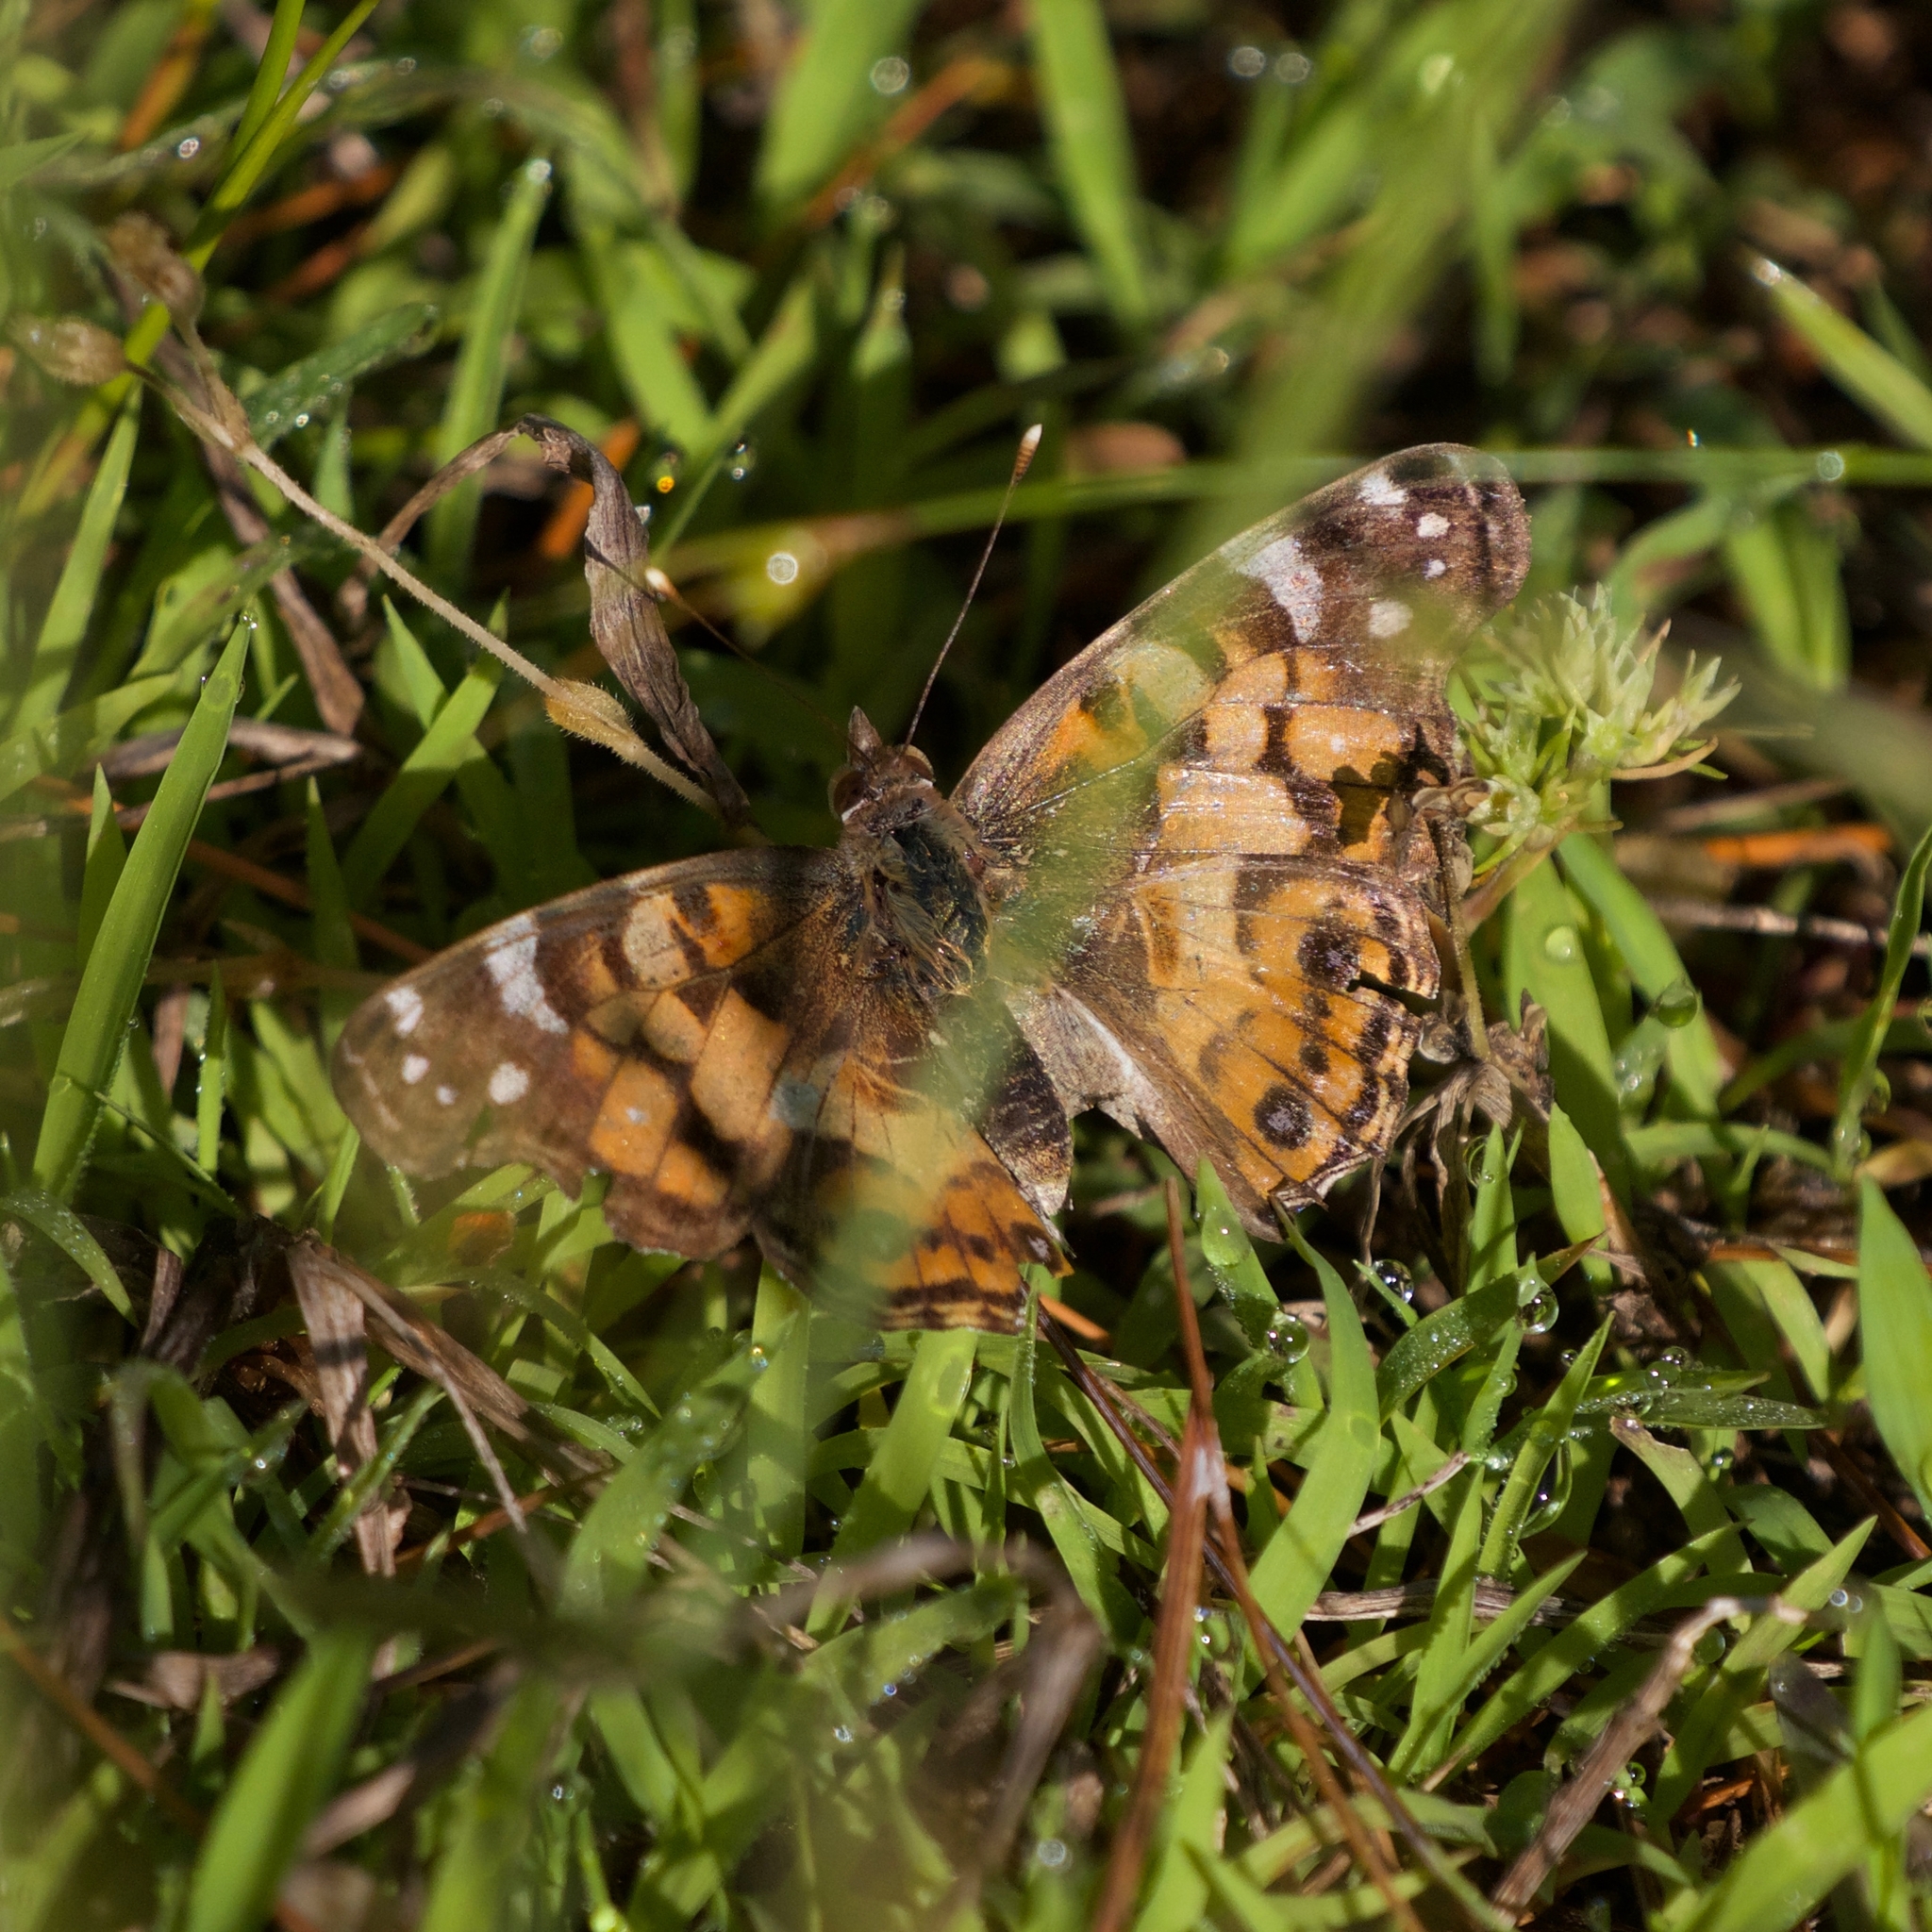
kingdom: Animalia
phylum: Arthropoda
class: Insecta
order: Lepidoptera
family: Nymphalidae
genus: Vanessa
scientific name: Vanessa virginiensis
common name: American lady
